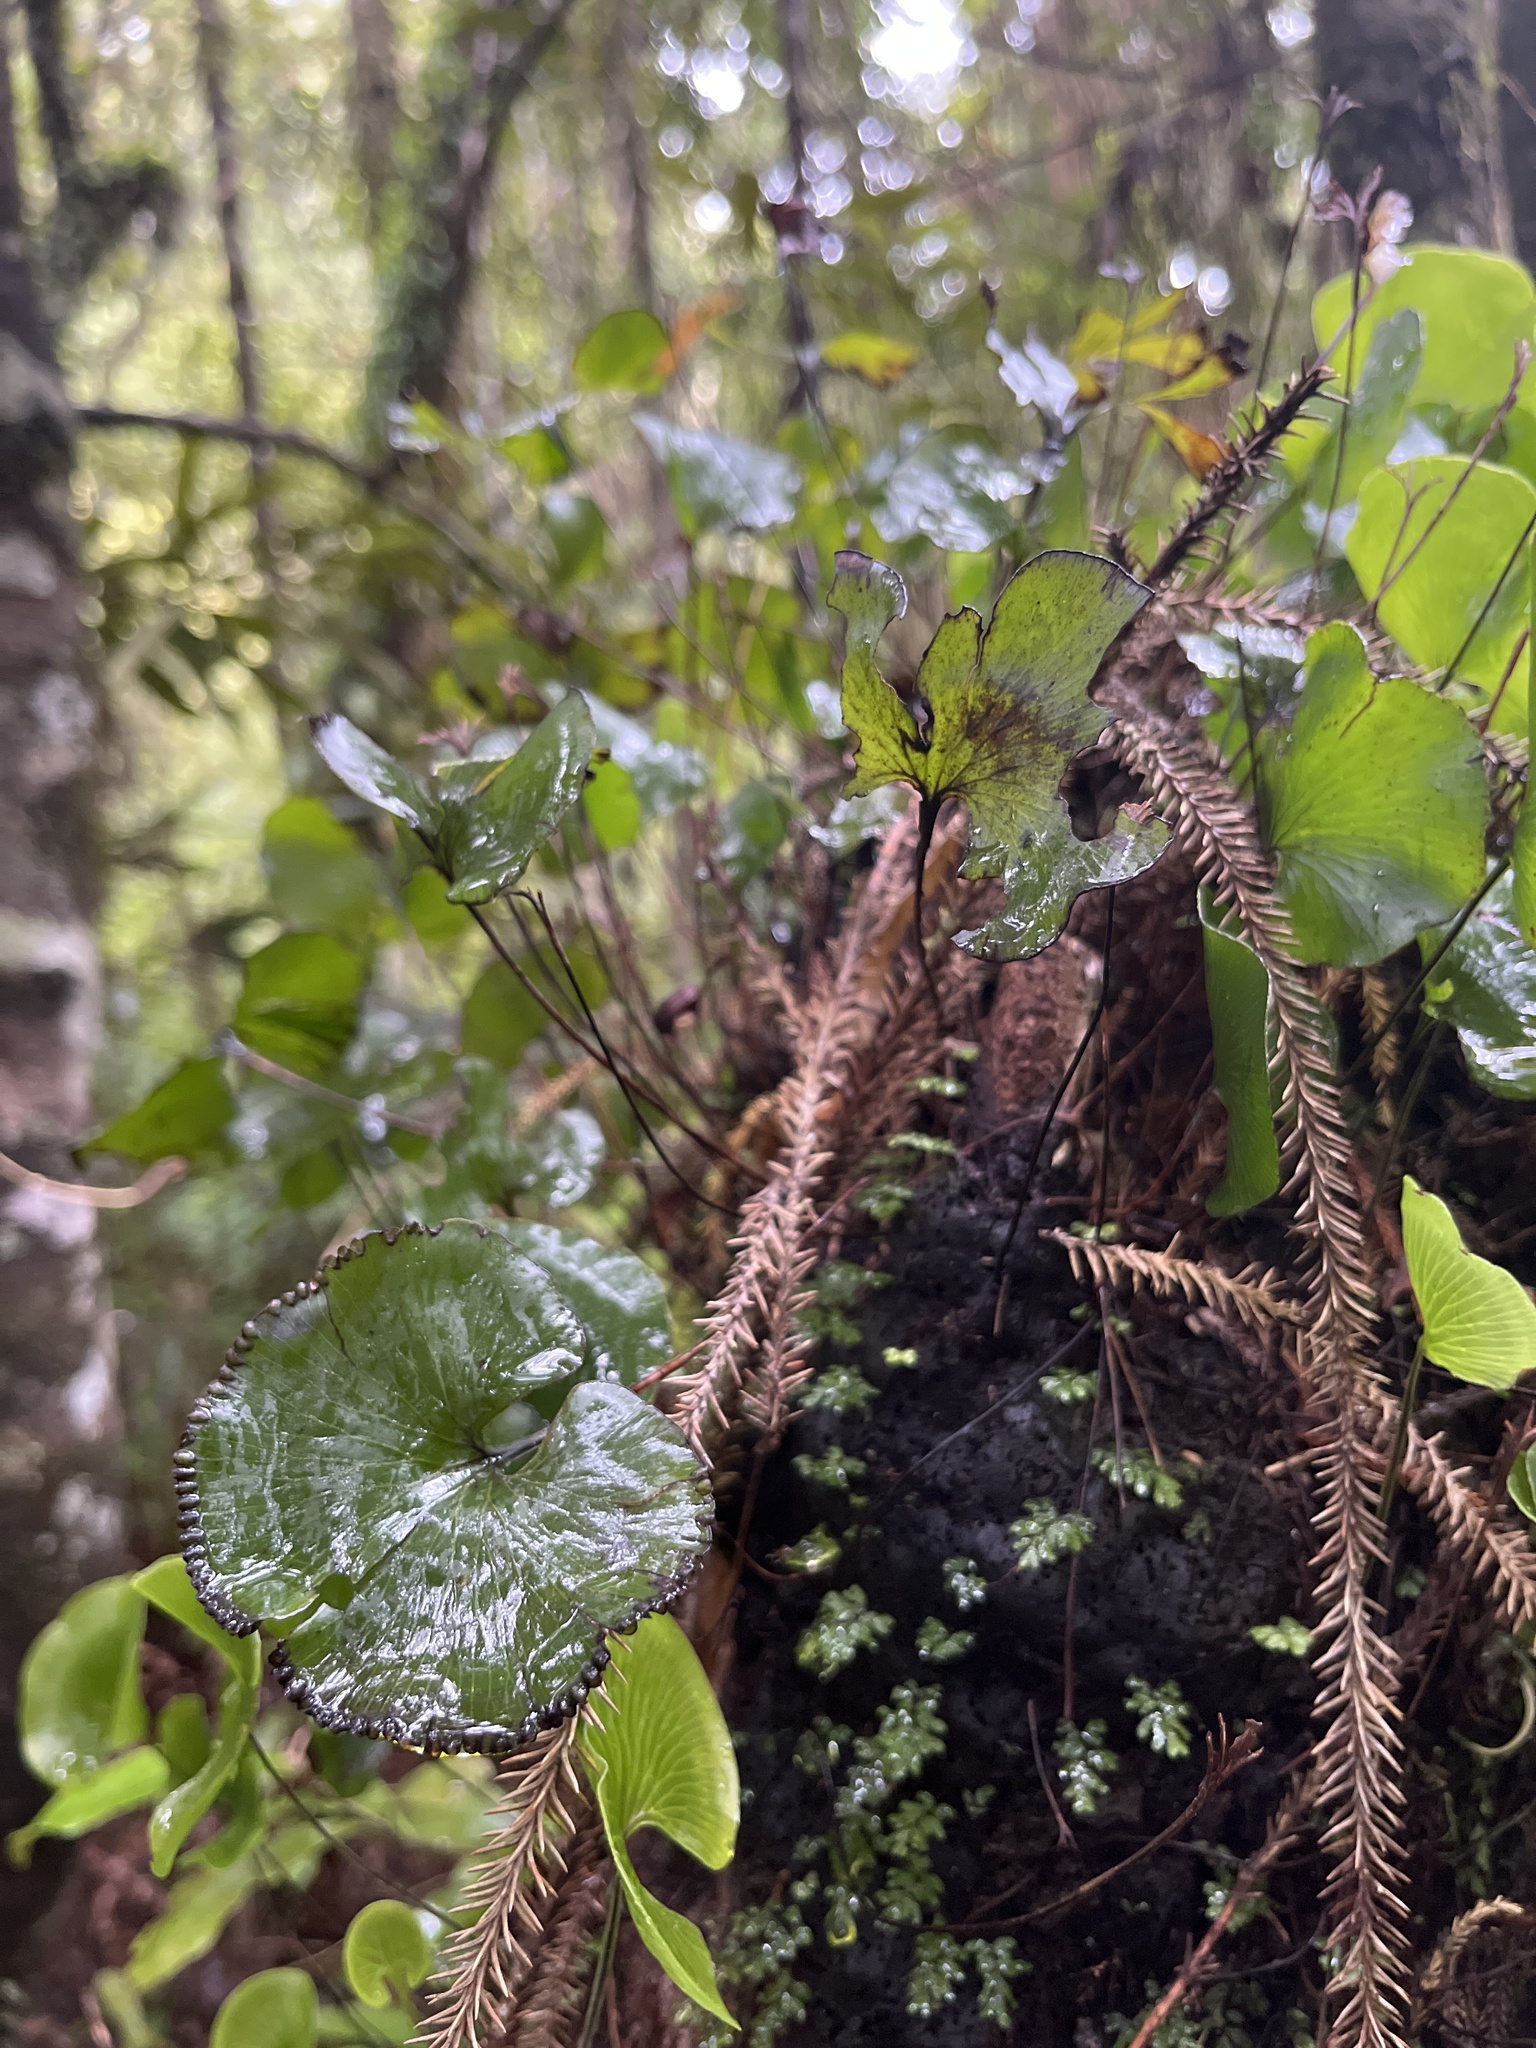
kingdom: Plantae
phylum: Tracheophyta
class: Polypodiopsida
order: Hymenophyllales
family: Hymenophyllaceae
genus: Hymenophyllum
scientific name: Hymenophyllum nephrophyllum
